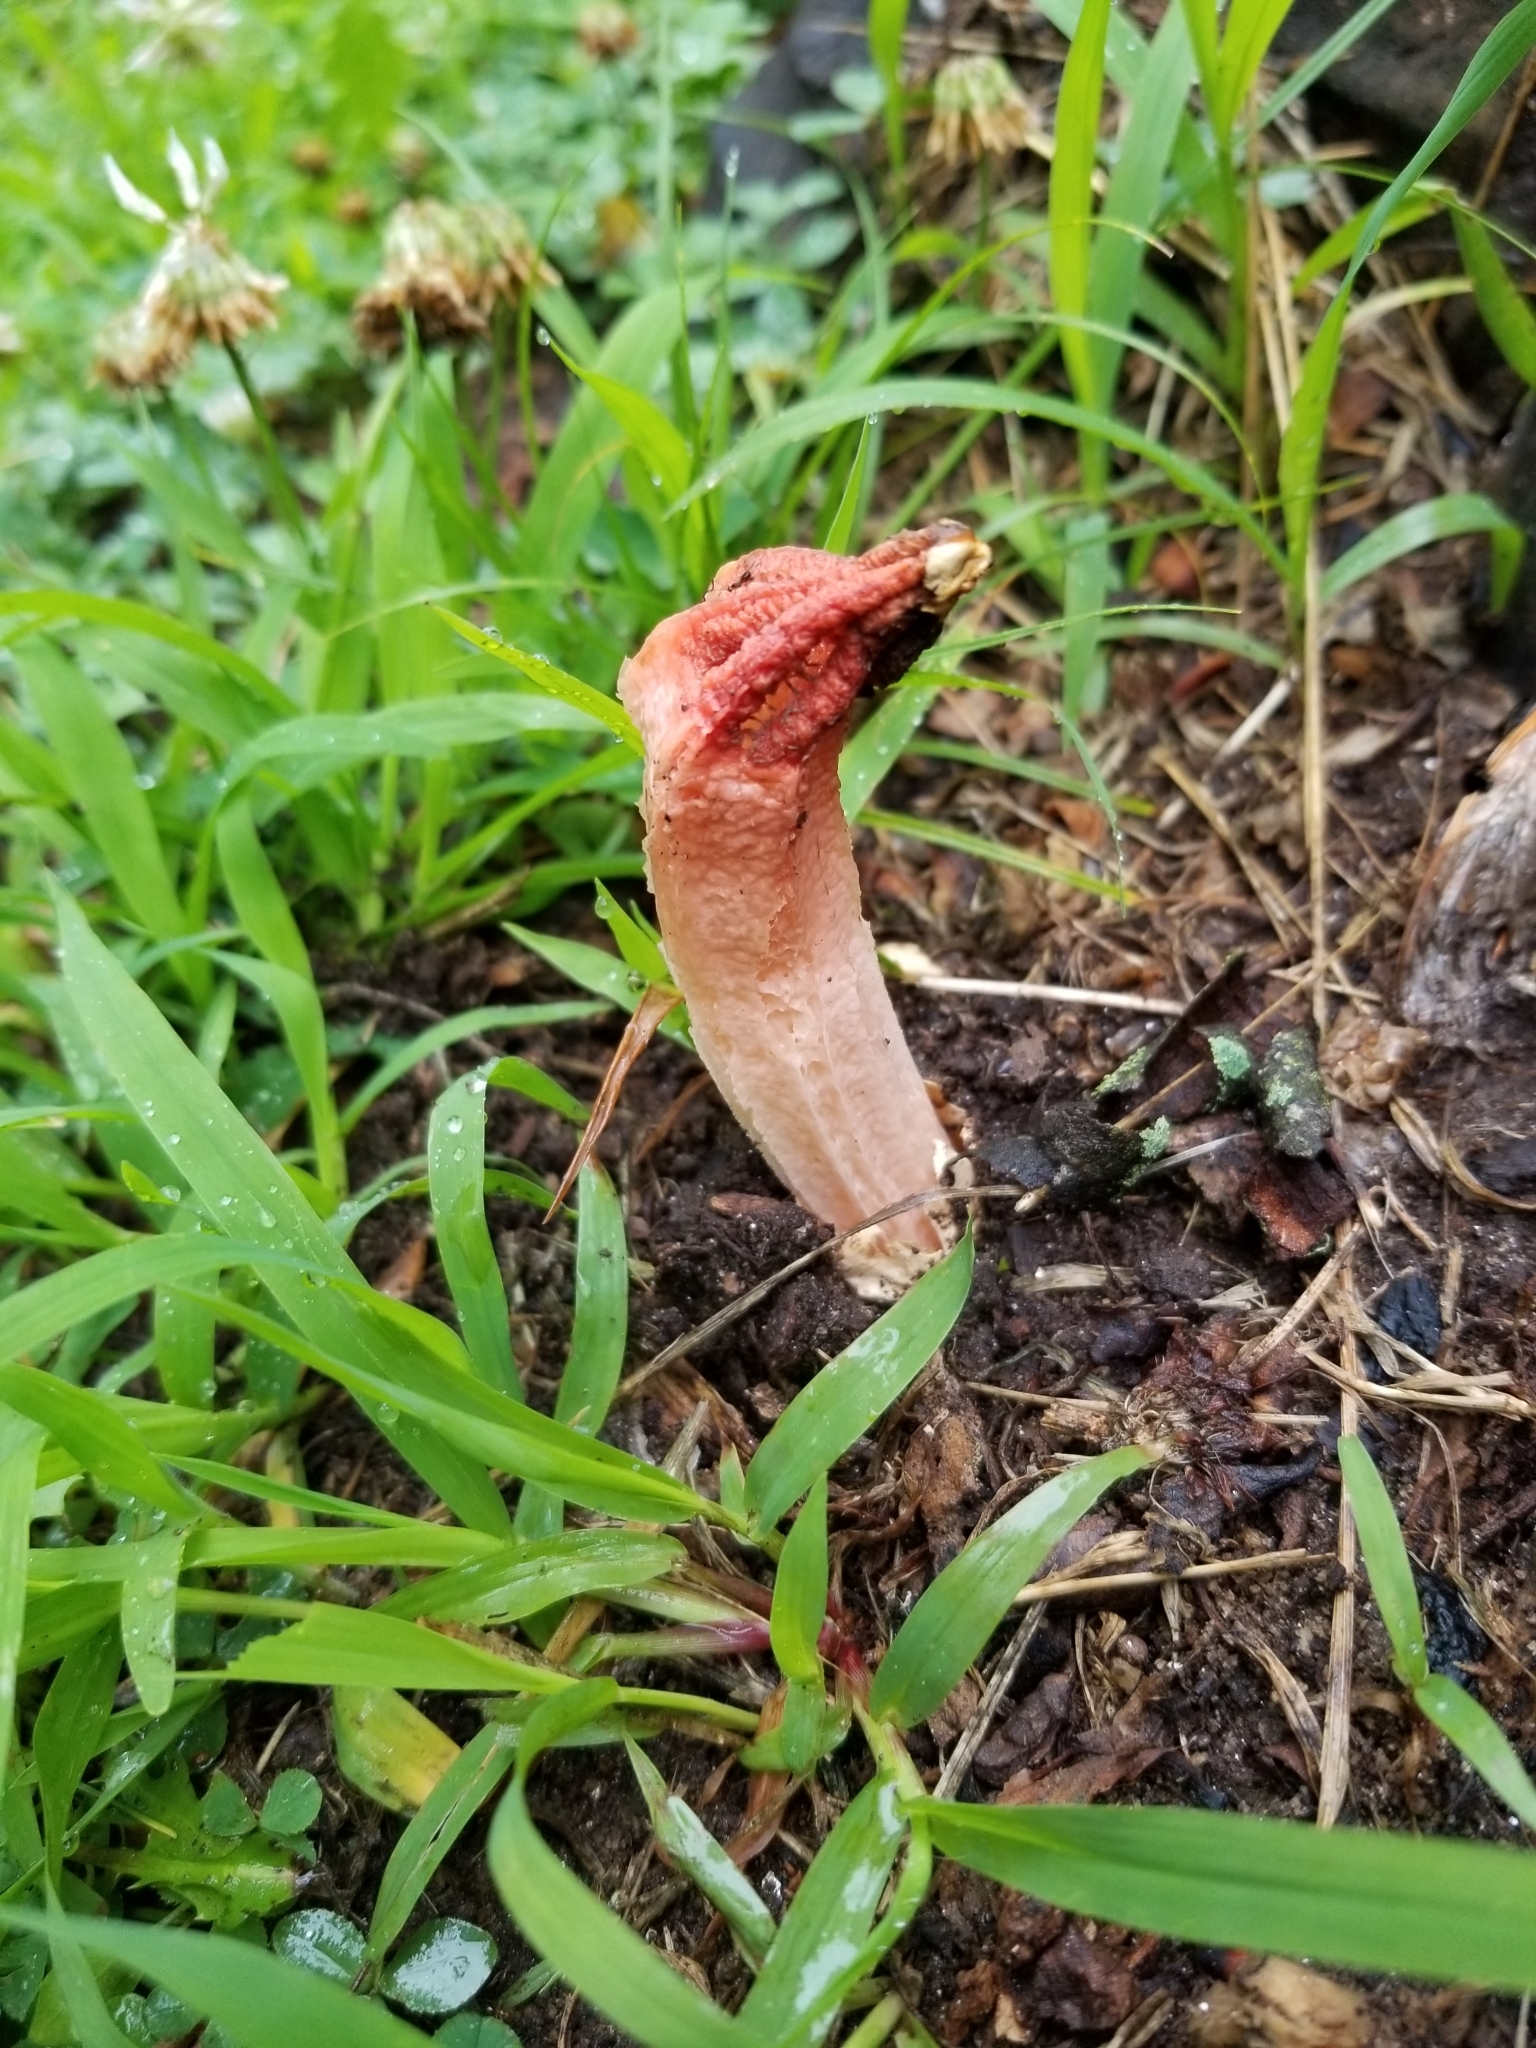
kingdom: Fungi
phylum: Basidiomycota
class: Agaricomycetes
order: Phallales
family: Phallaceae
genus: Lysurus
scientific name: Lysurus mokusin
